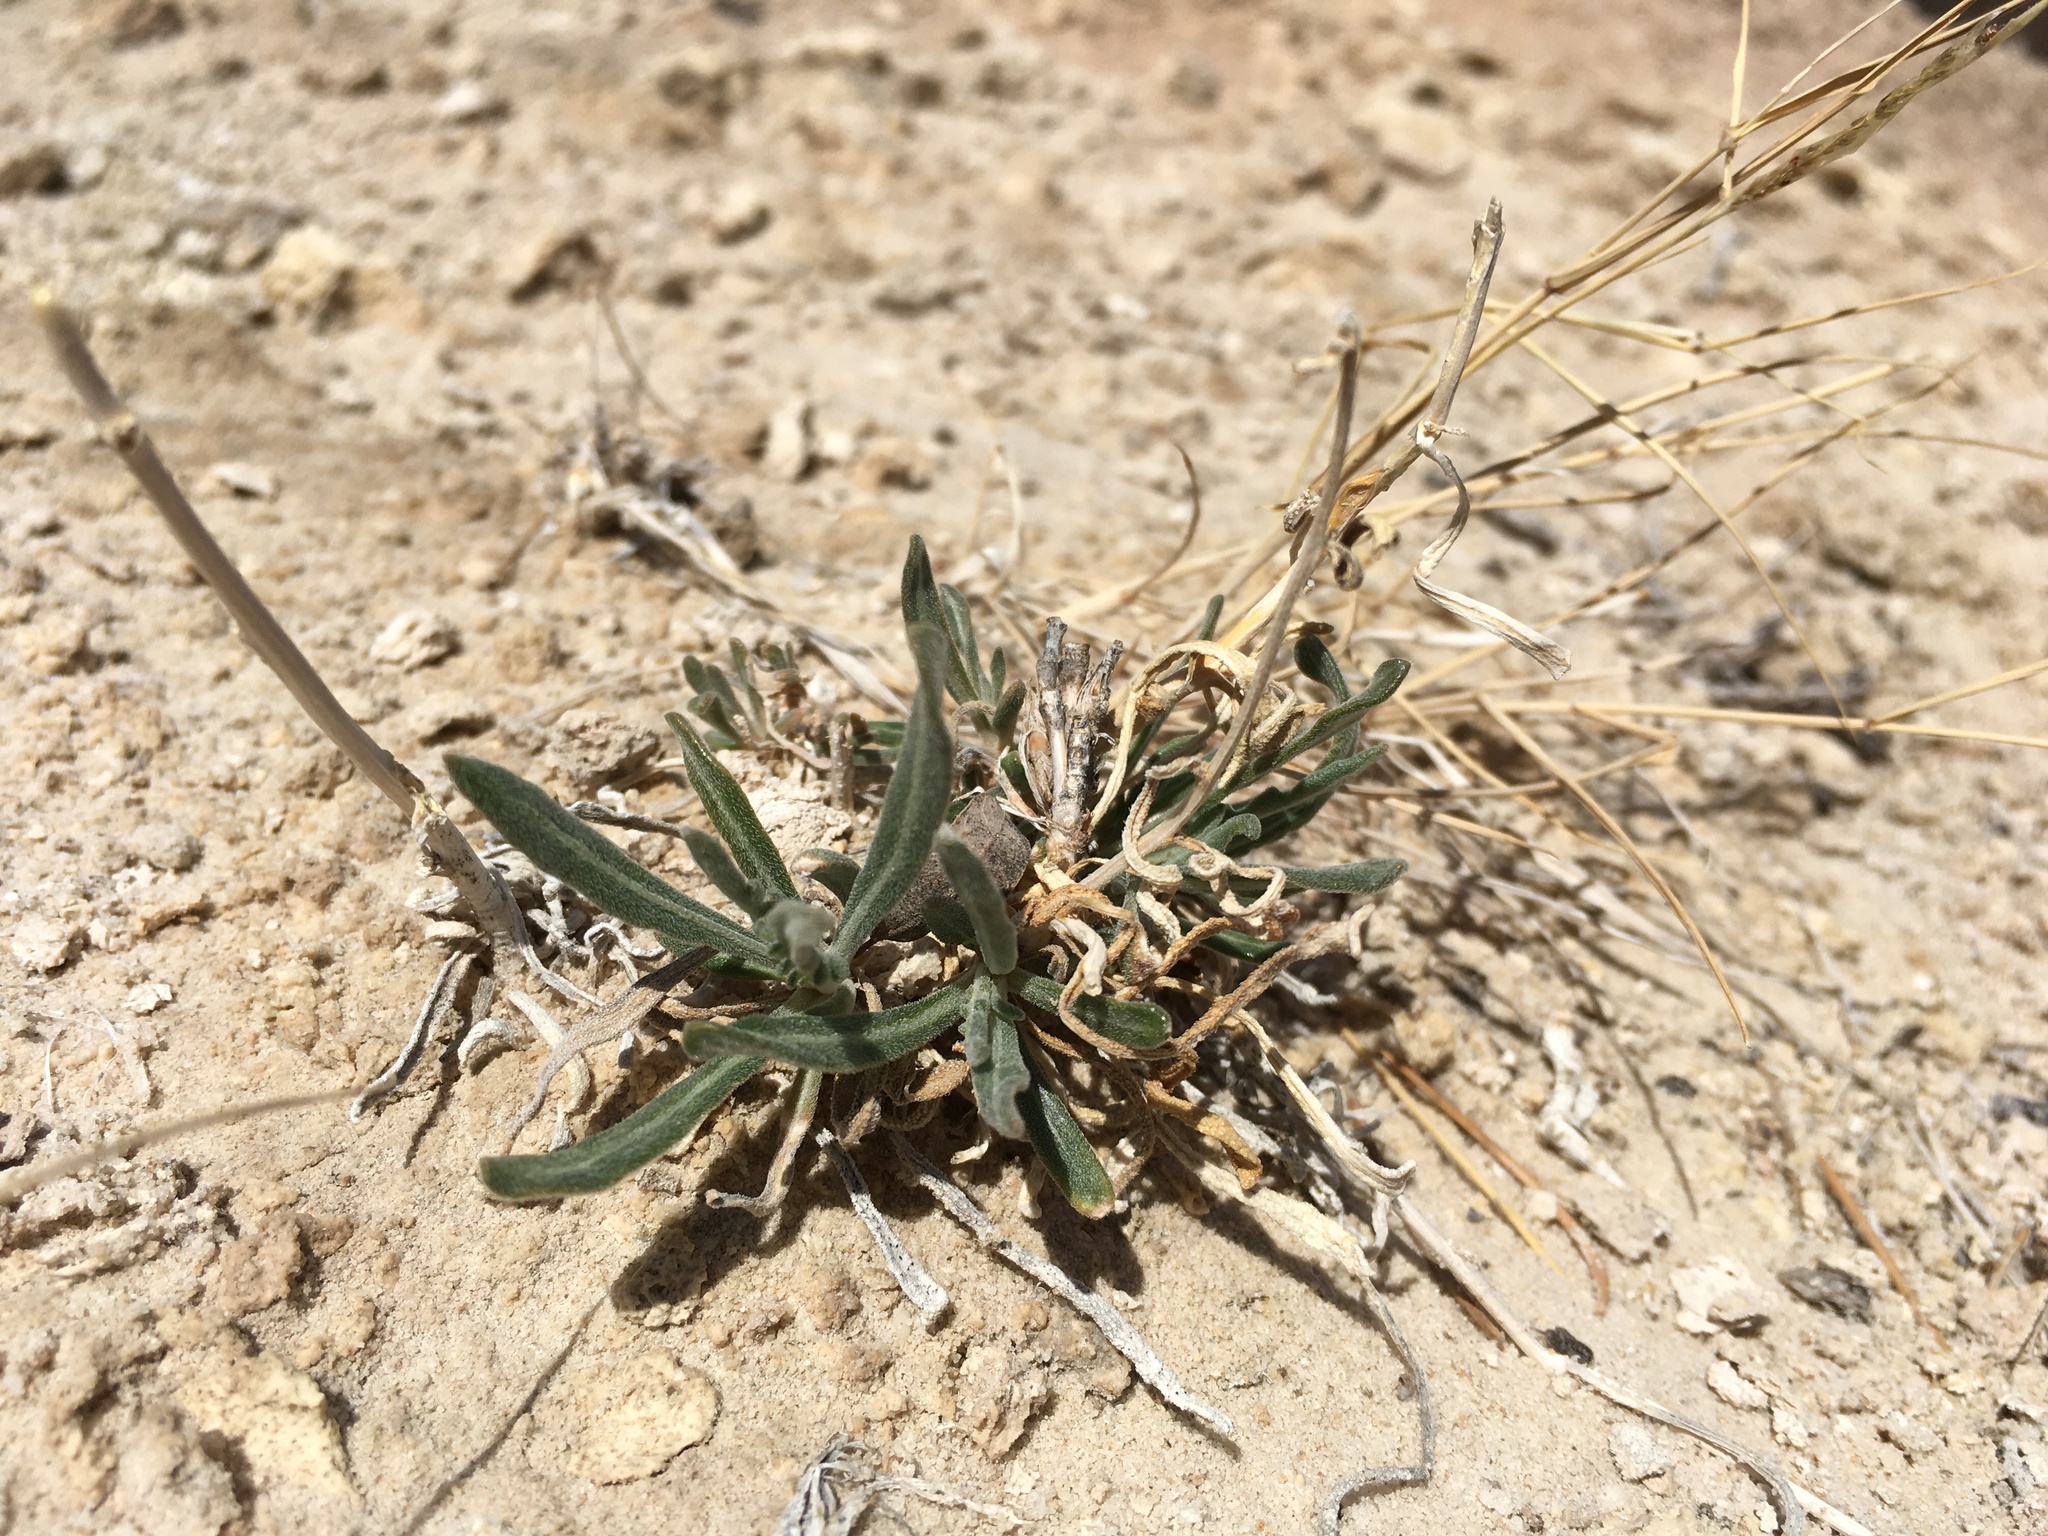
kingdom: Plantae
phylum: Tracheophyta
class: Magnoliopsida
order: Cornales
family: Loasaceae
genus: Mentzelia
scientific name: Mentzelia todiltoensis
